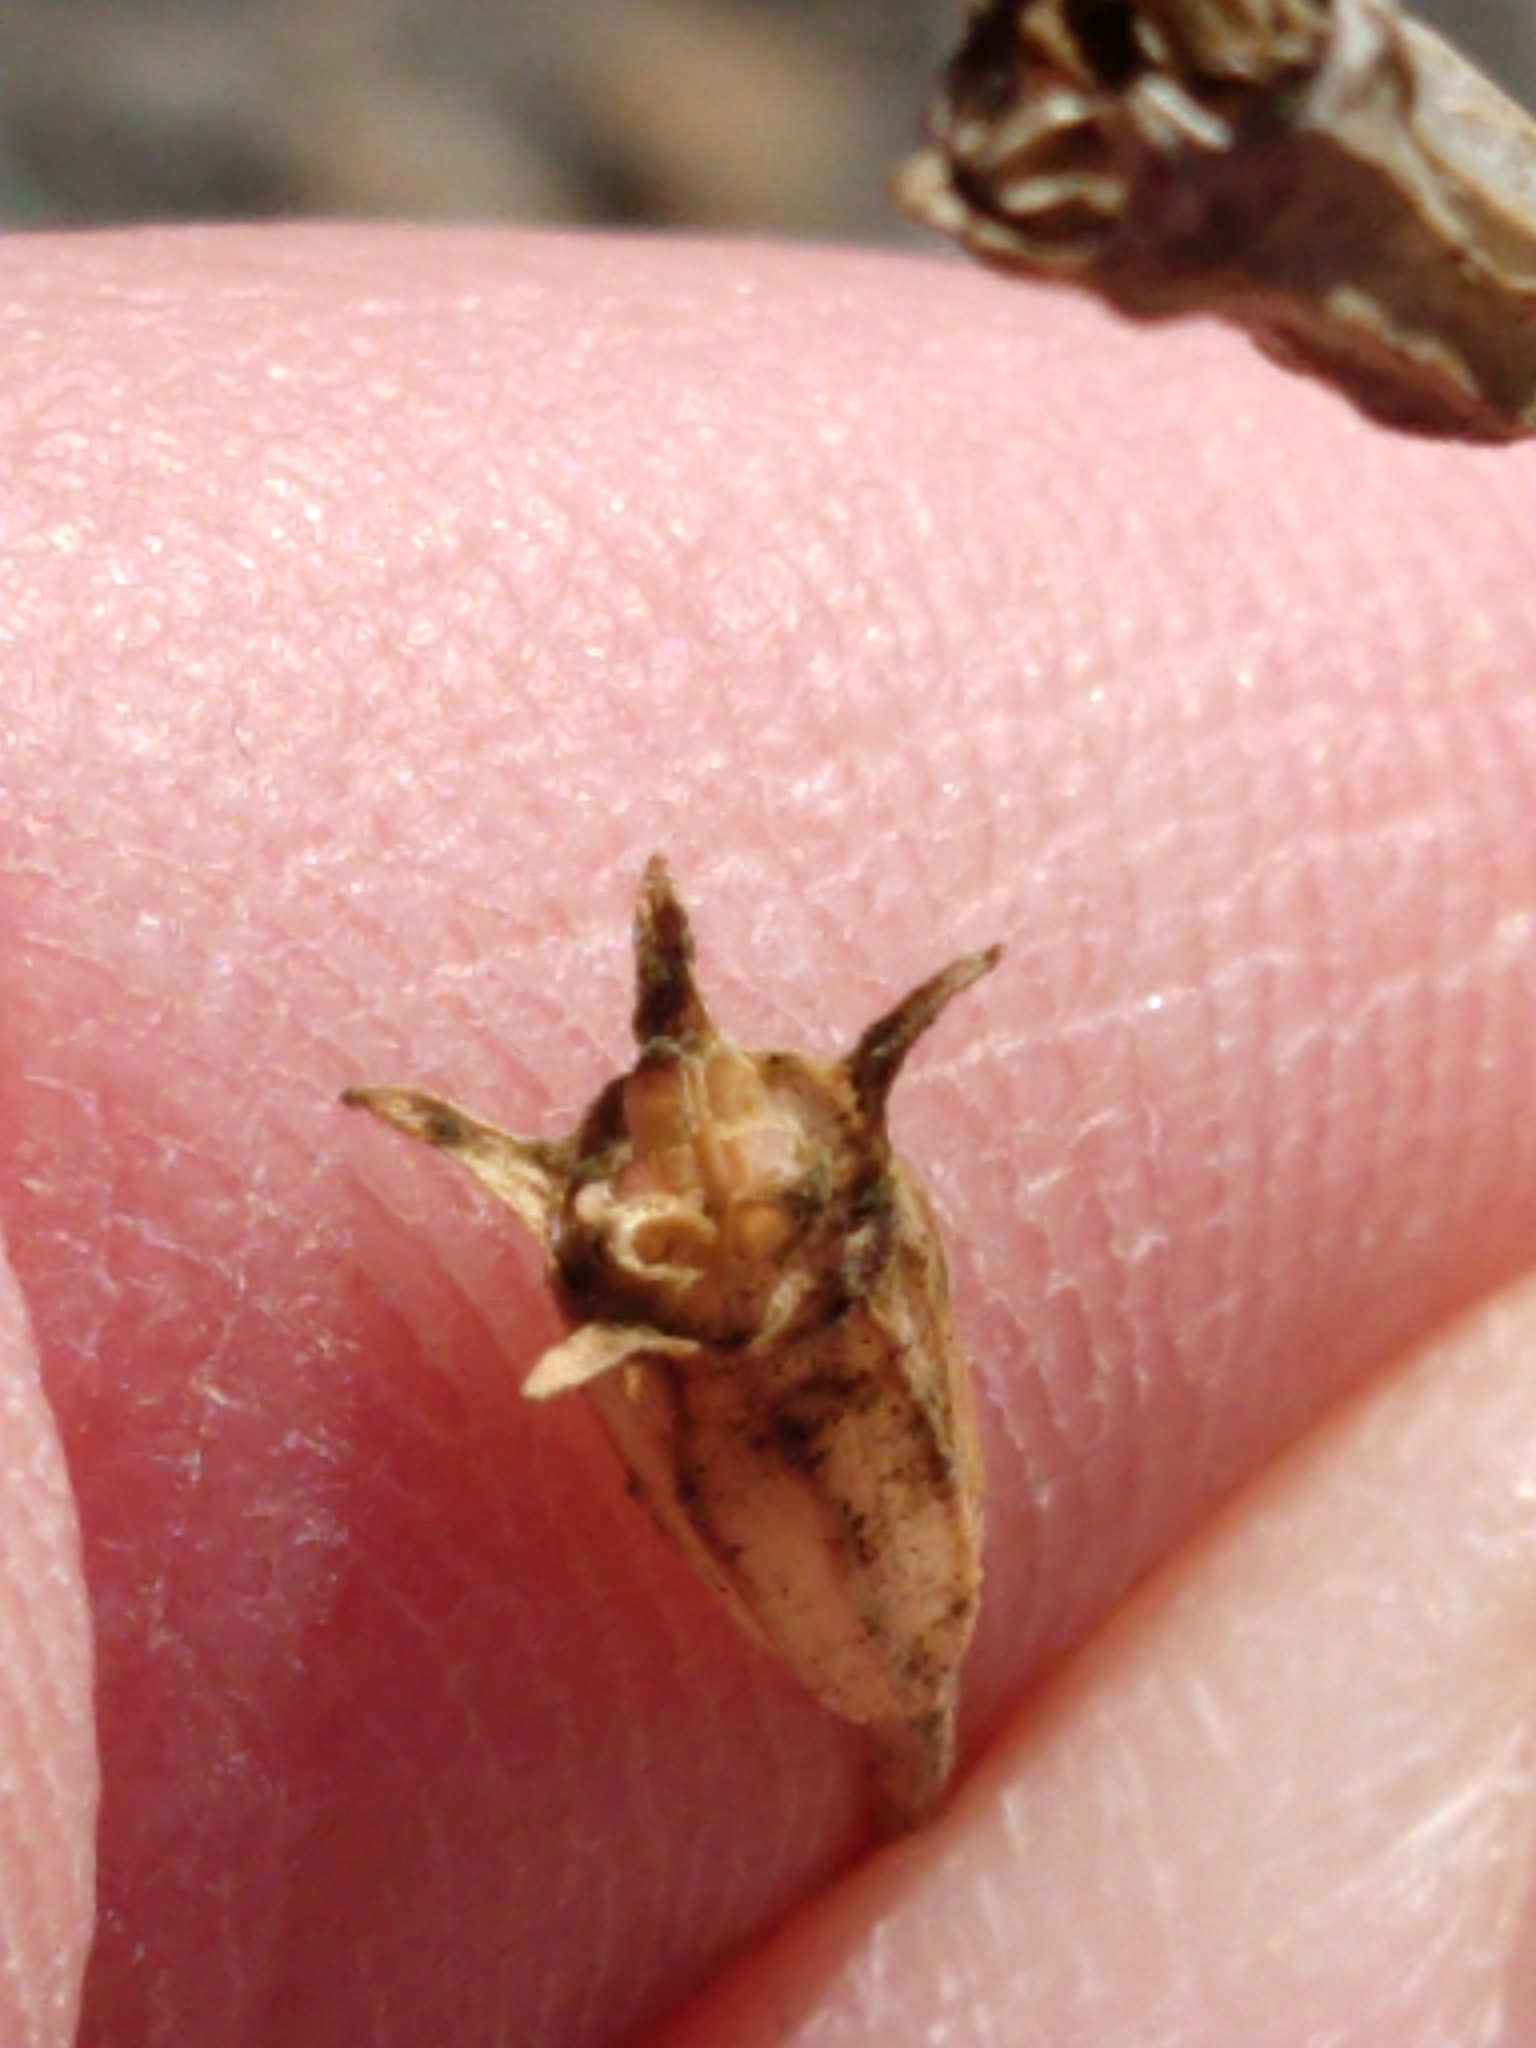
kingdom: Plantae
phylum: Tracheophyta
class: Magnoliopsida
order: Asterales
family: Campanulaceae
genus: Wahlenbergia
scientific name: Wahlenbergia marginata
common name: Southern rockbell
